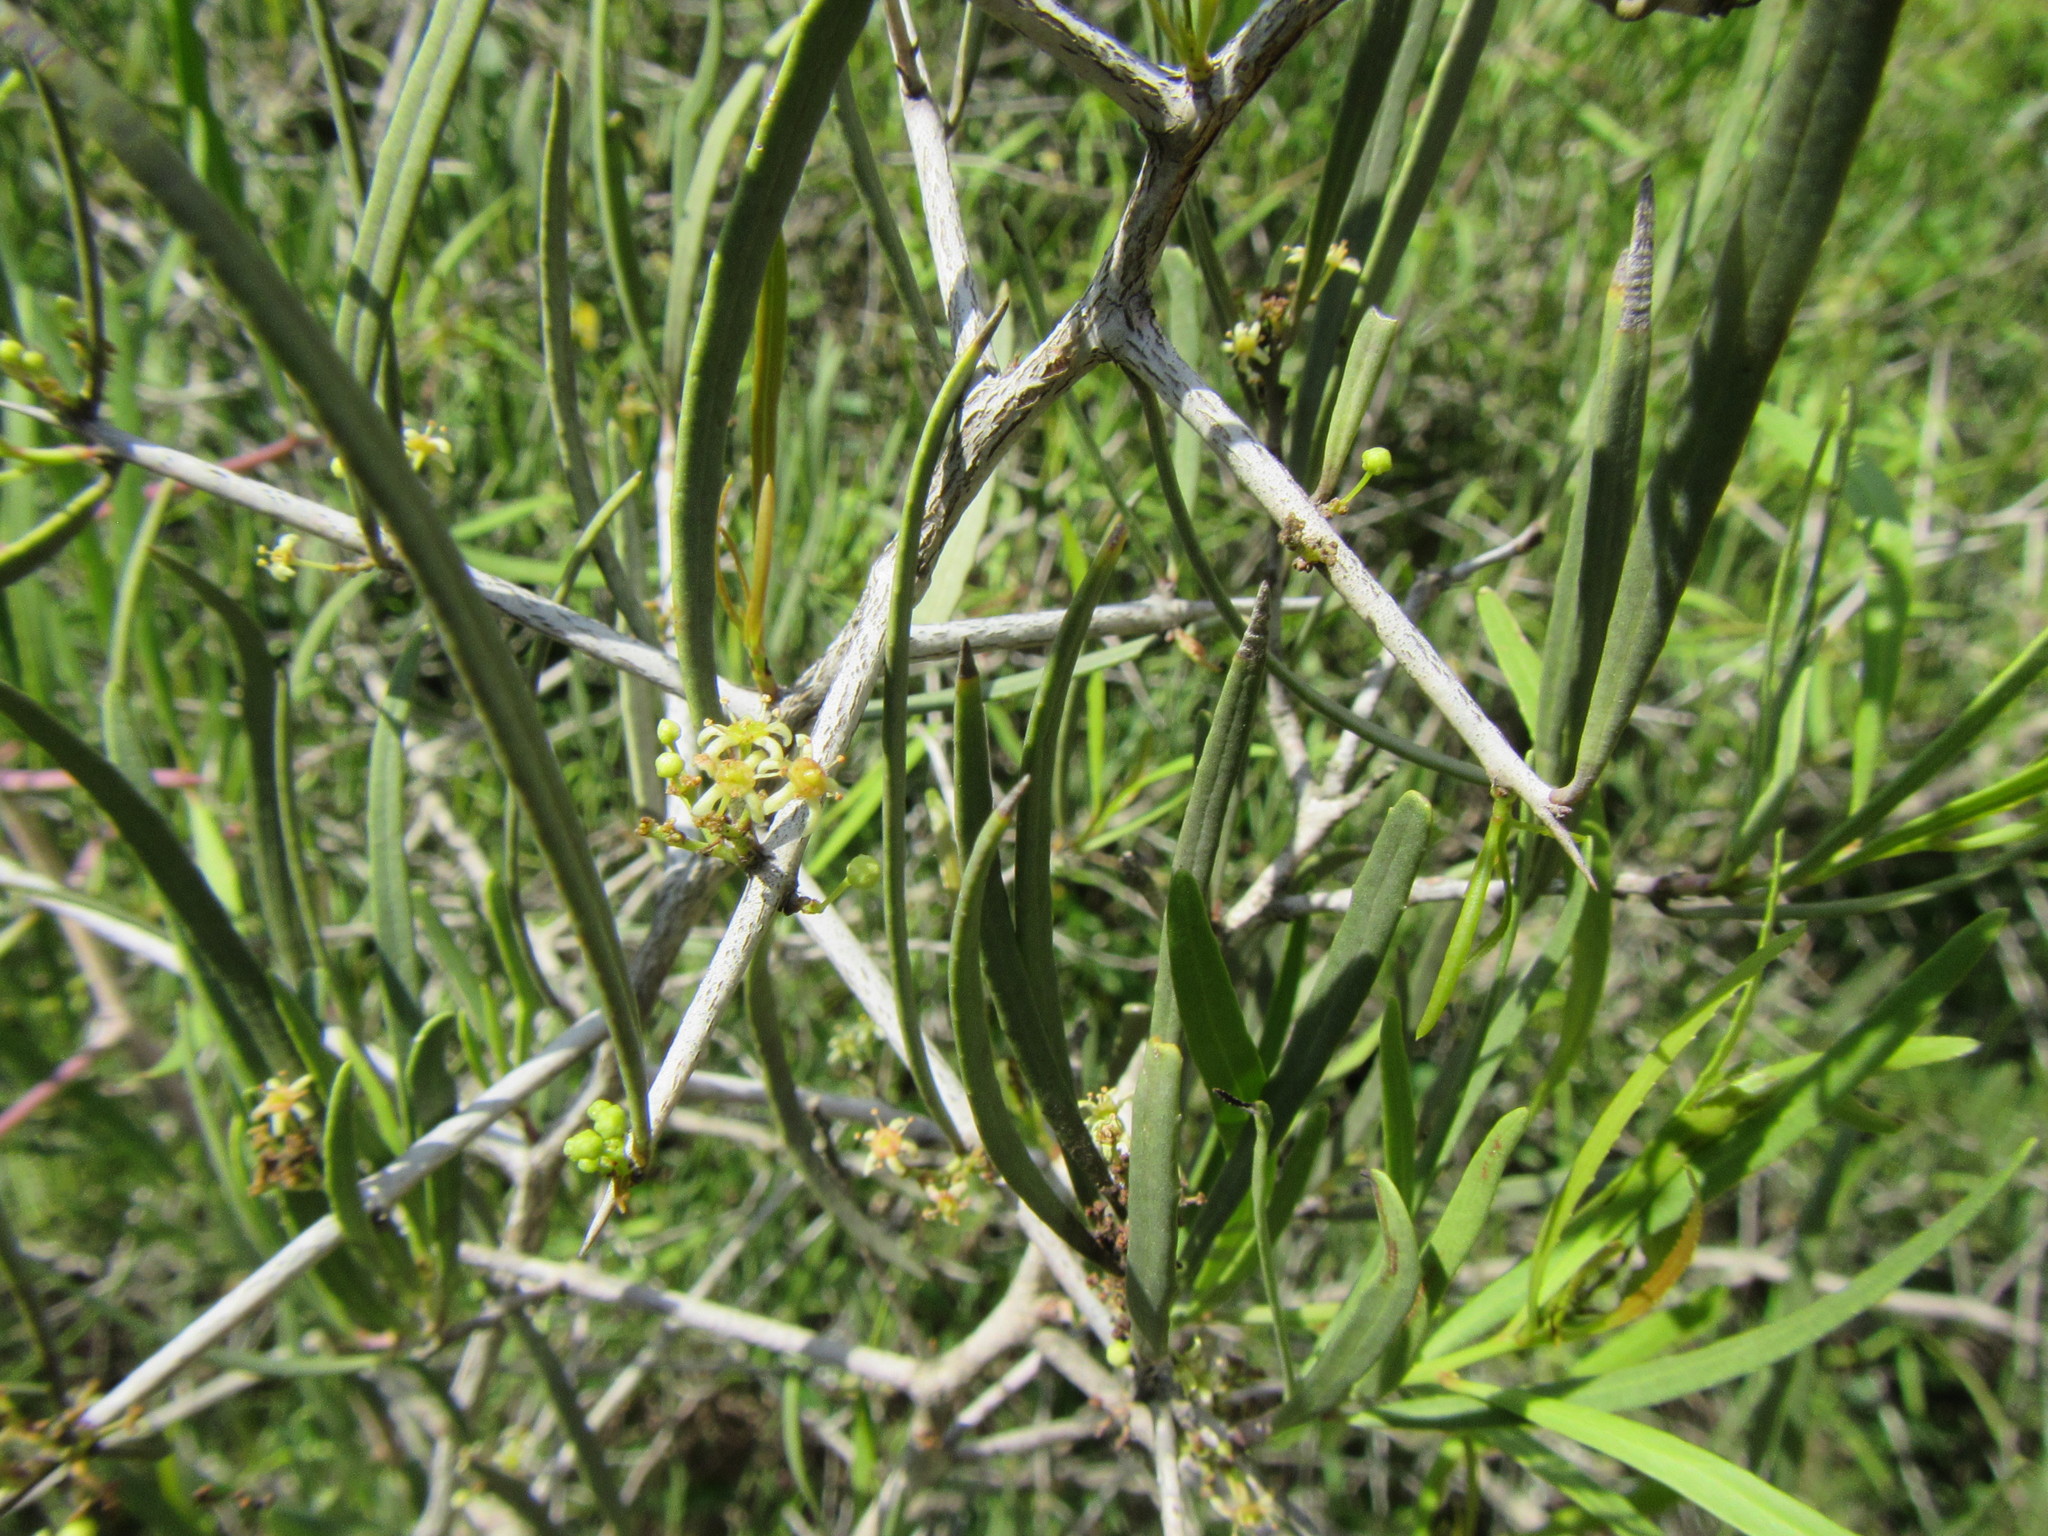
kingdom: Plantae
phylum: Tracheophyta
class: Magnoliopsida
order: Celastrales
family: Celastraceae
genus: Gymnosporia
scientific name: Gymnosporia linearis
